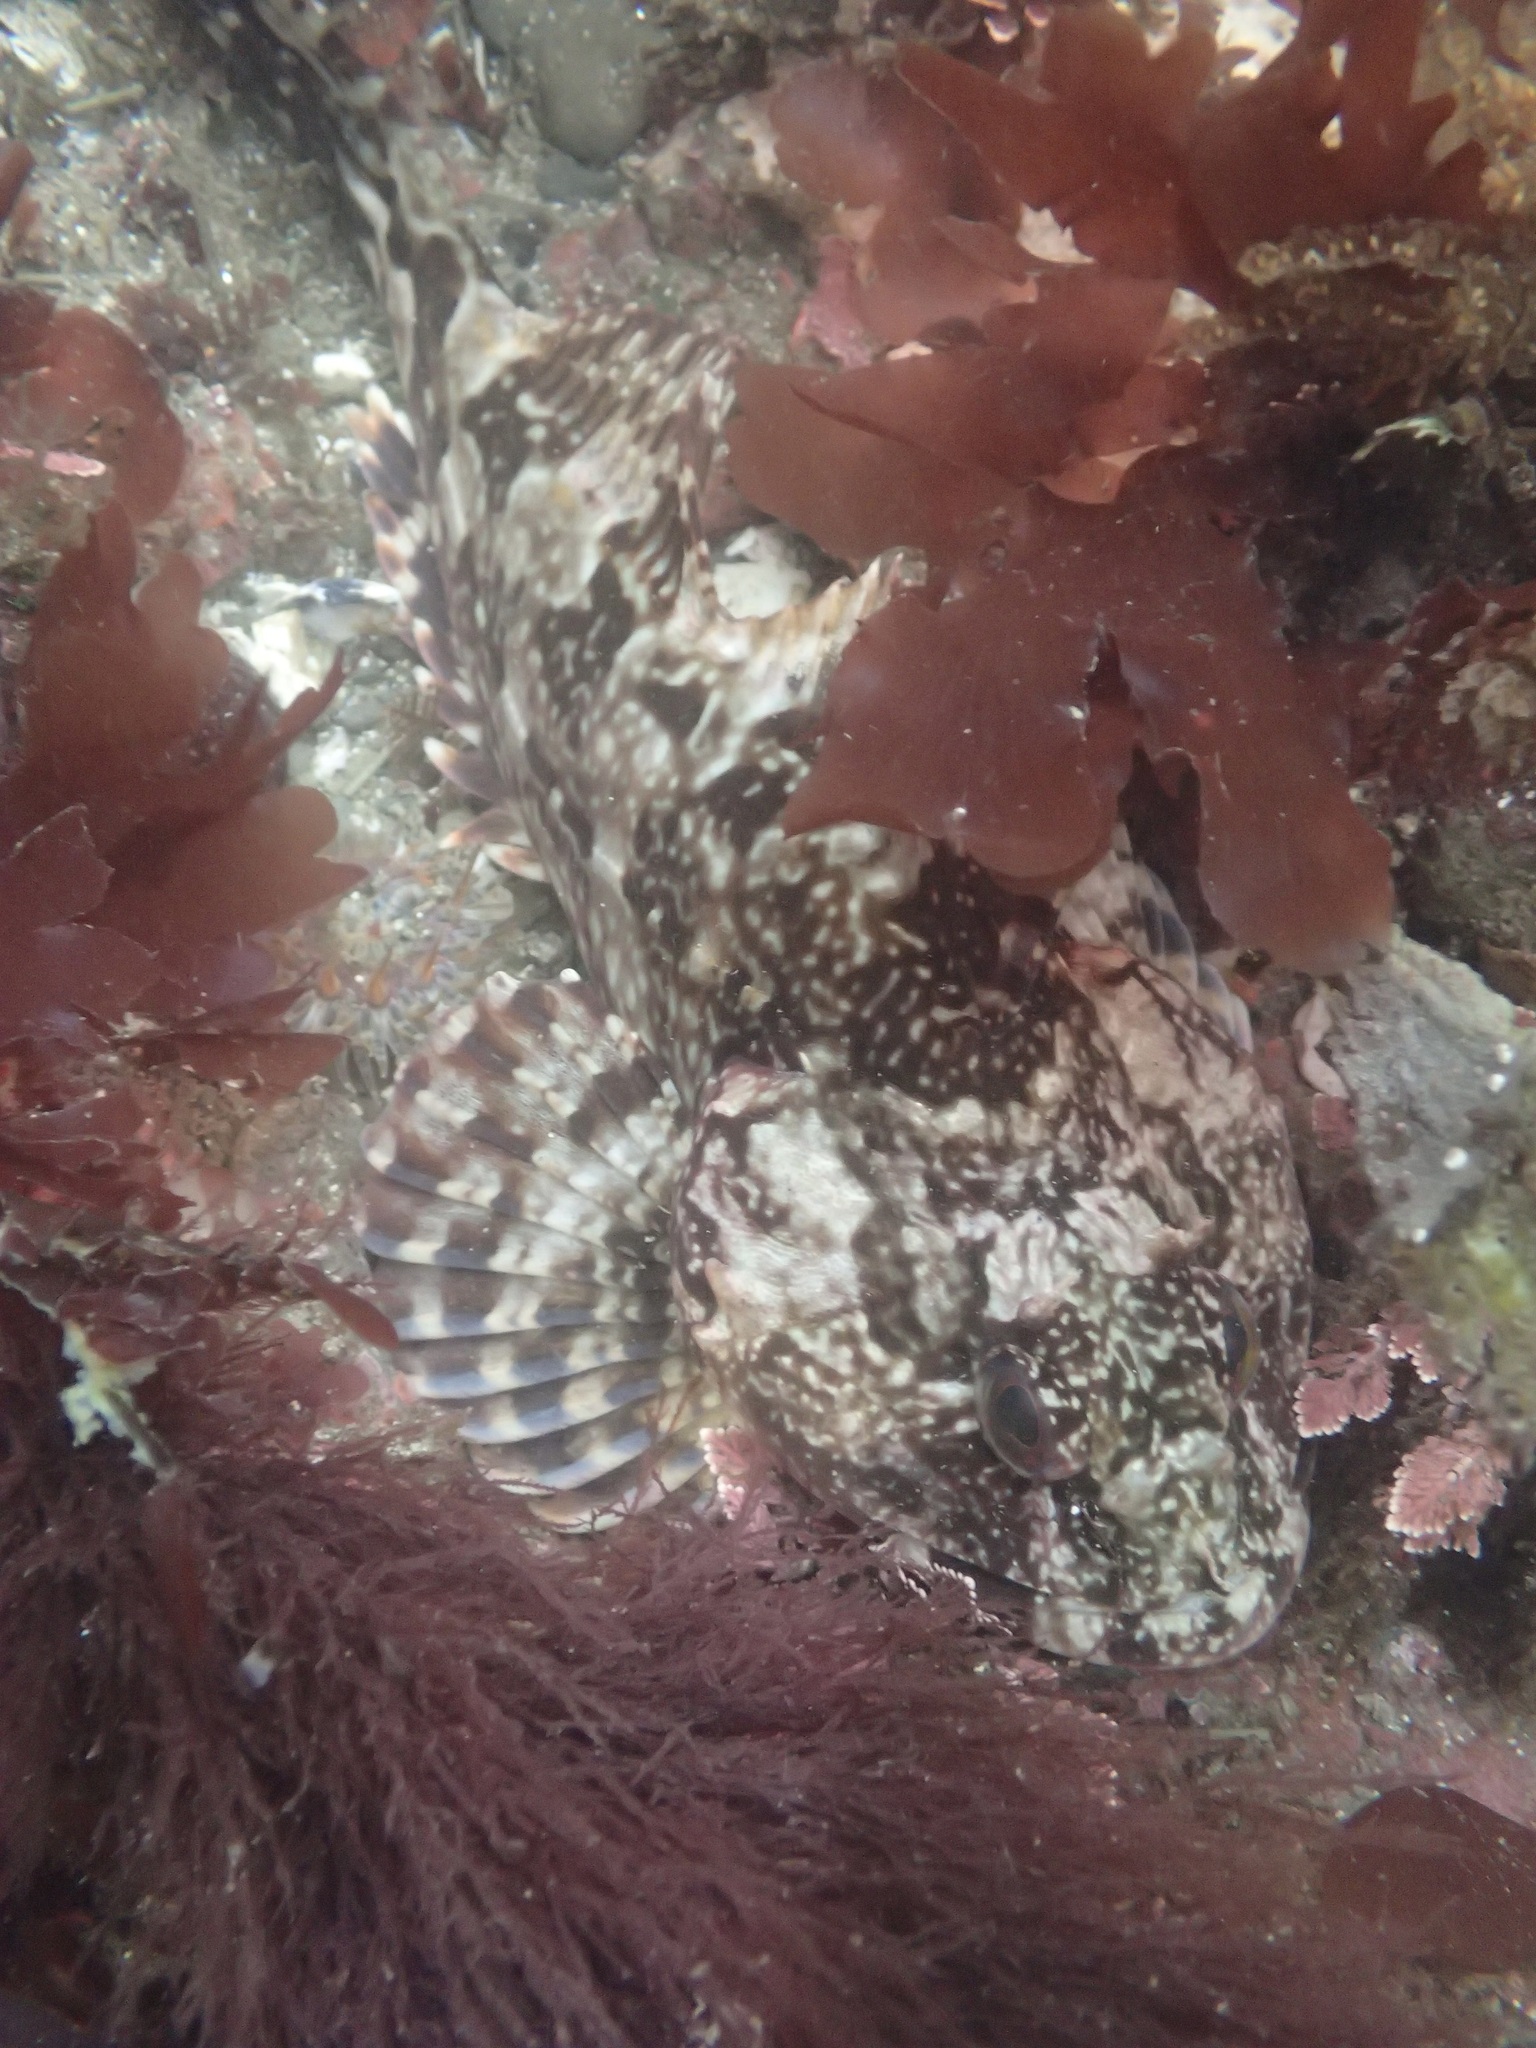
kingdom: Animalia
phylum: Chordata
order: Scorpaeniformes
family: Cottidae
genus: Scorpaenichthys
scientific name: Scorpaenichthys marmoratus
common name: Cabezon
